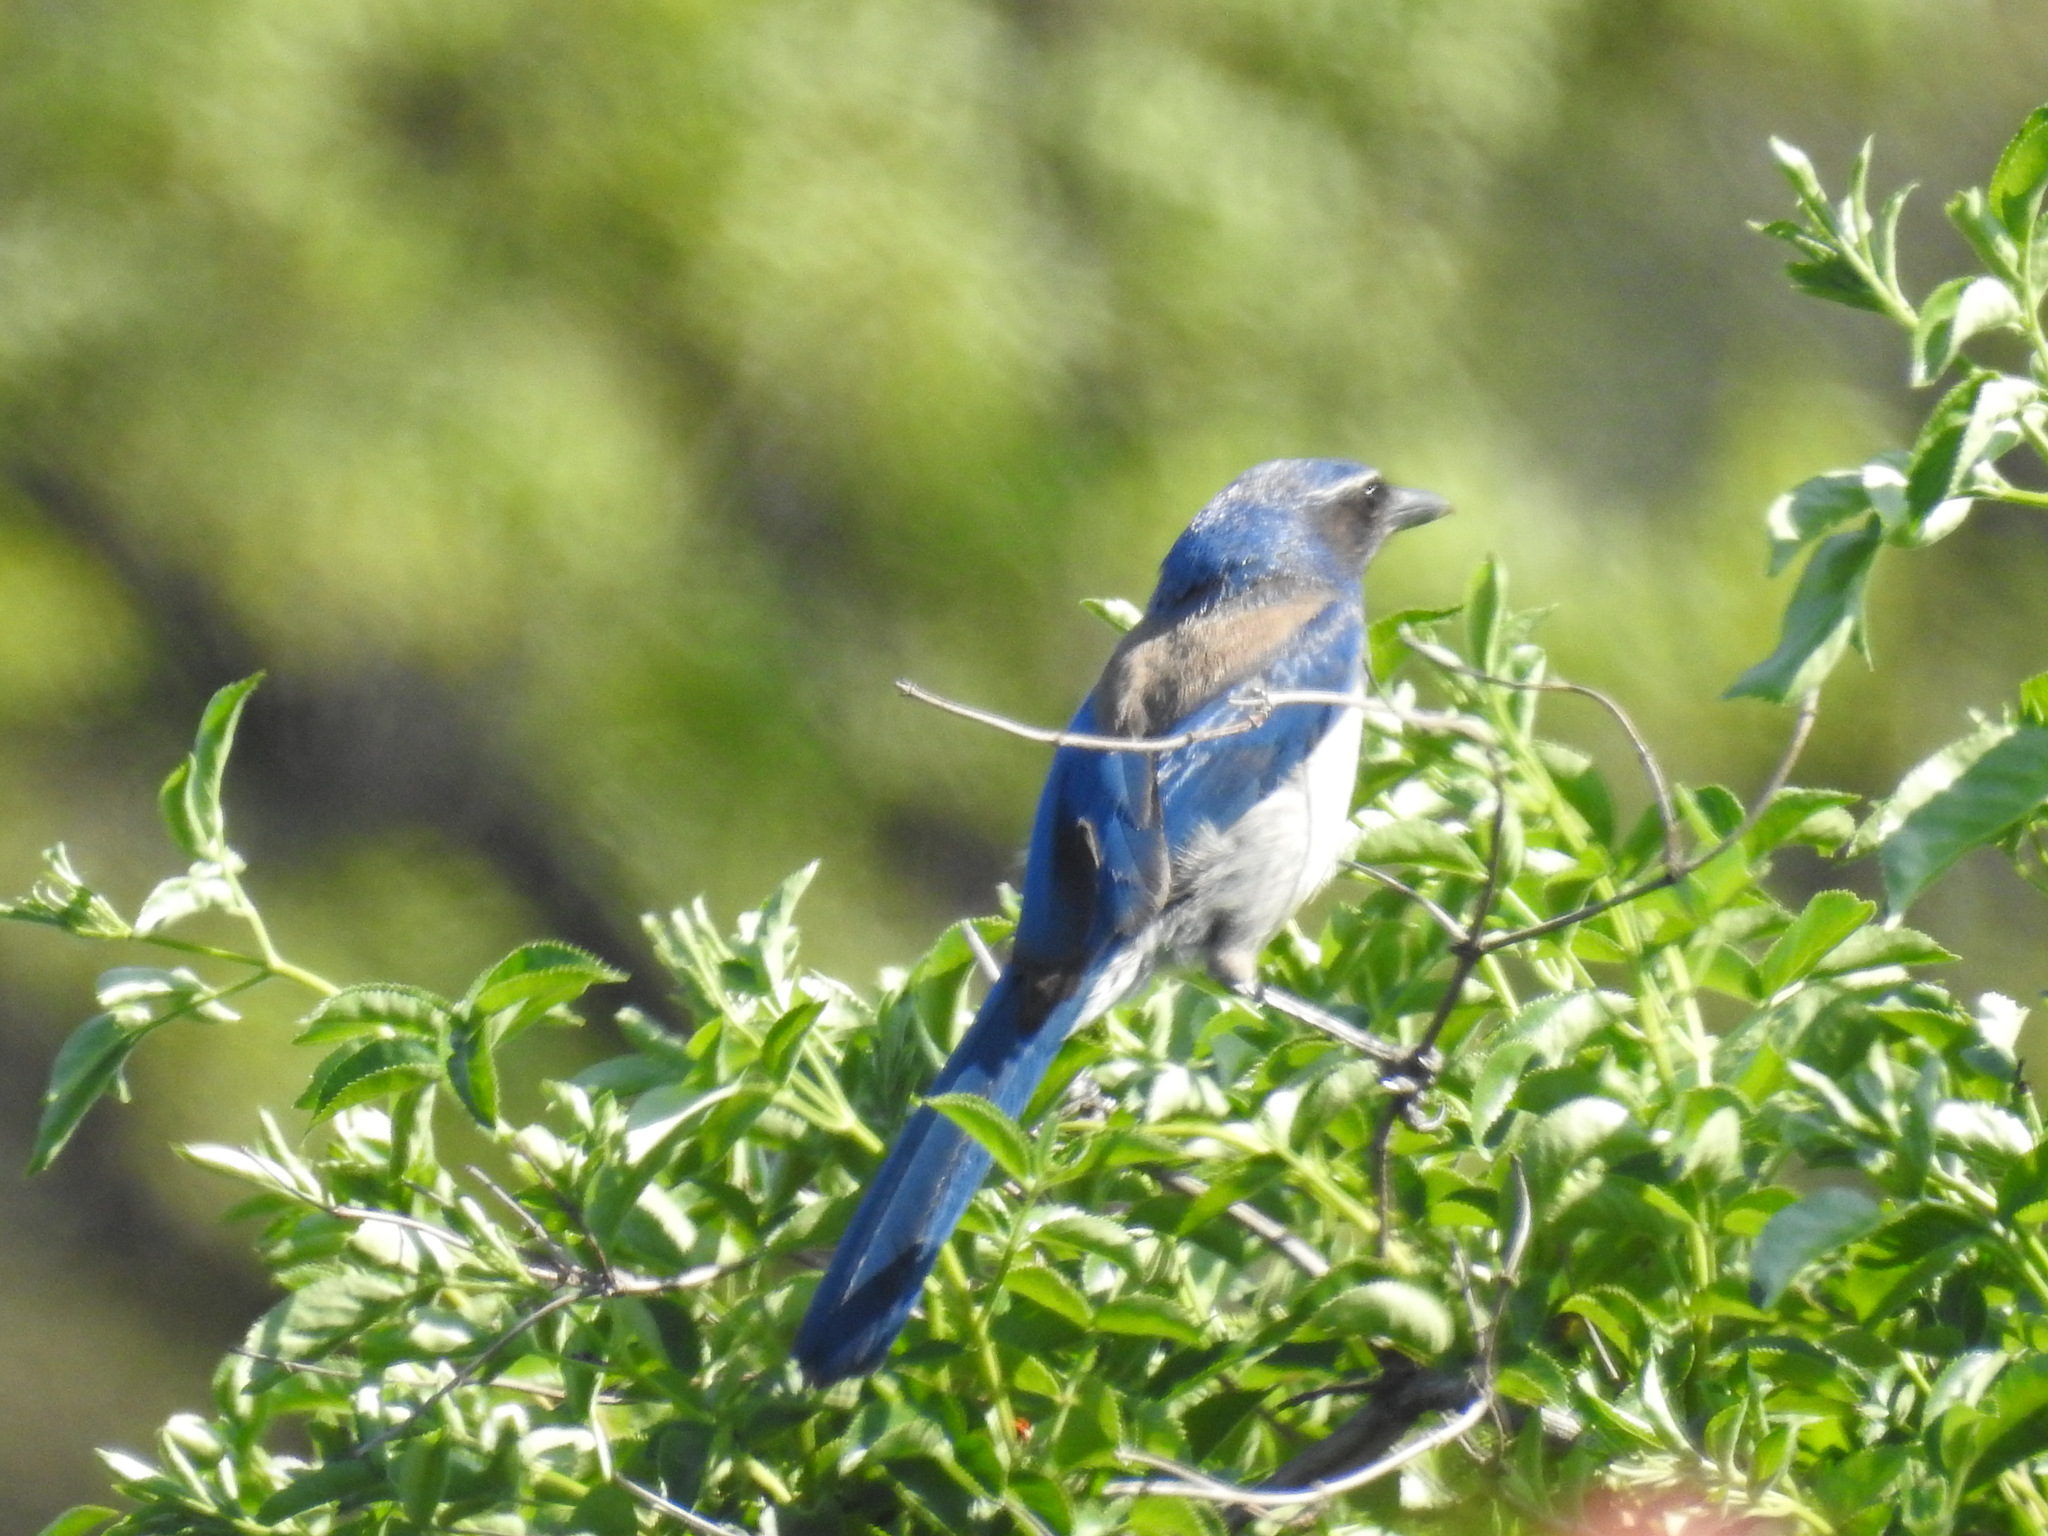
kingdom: Animalia
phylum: Chordata
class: Aves
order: Passeriformes
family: Corvidae
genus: Aphelocoma
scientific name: Aphelocoma californica
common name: California scrub-jay
